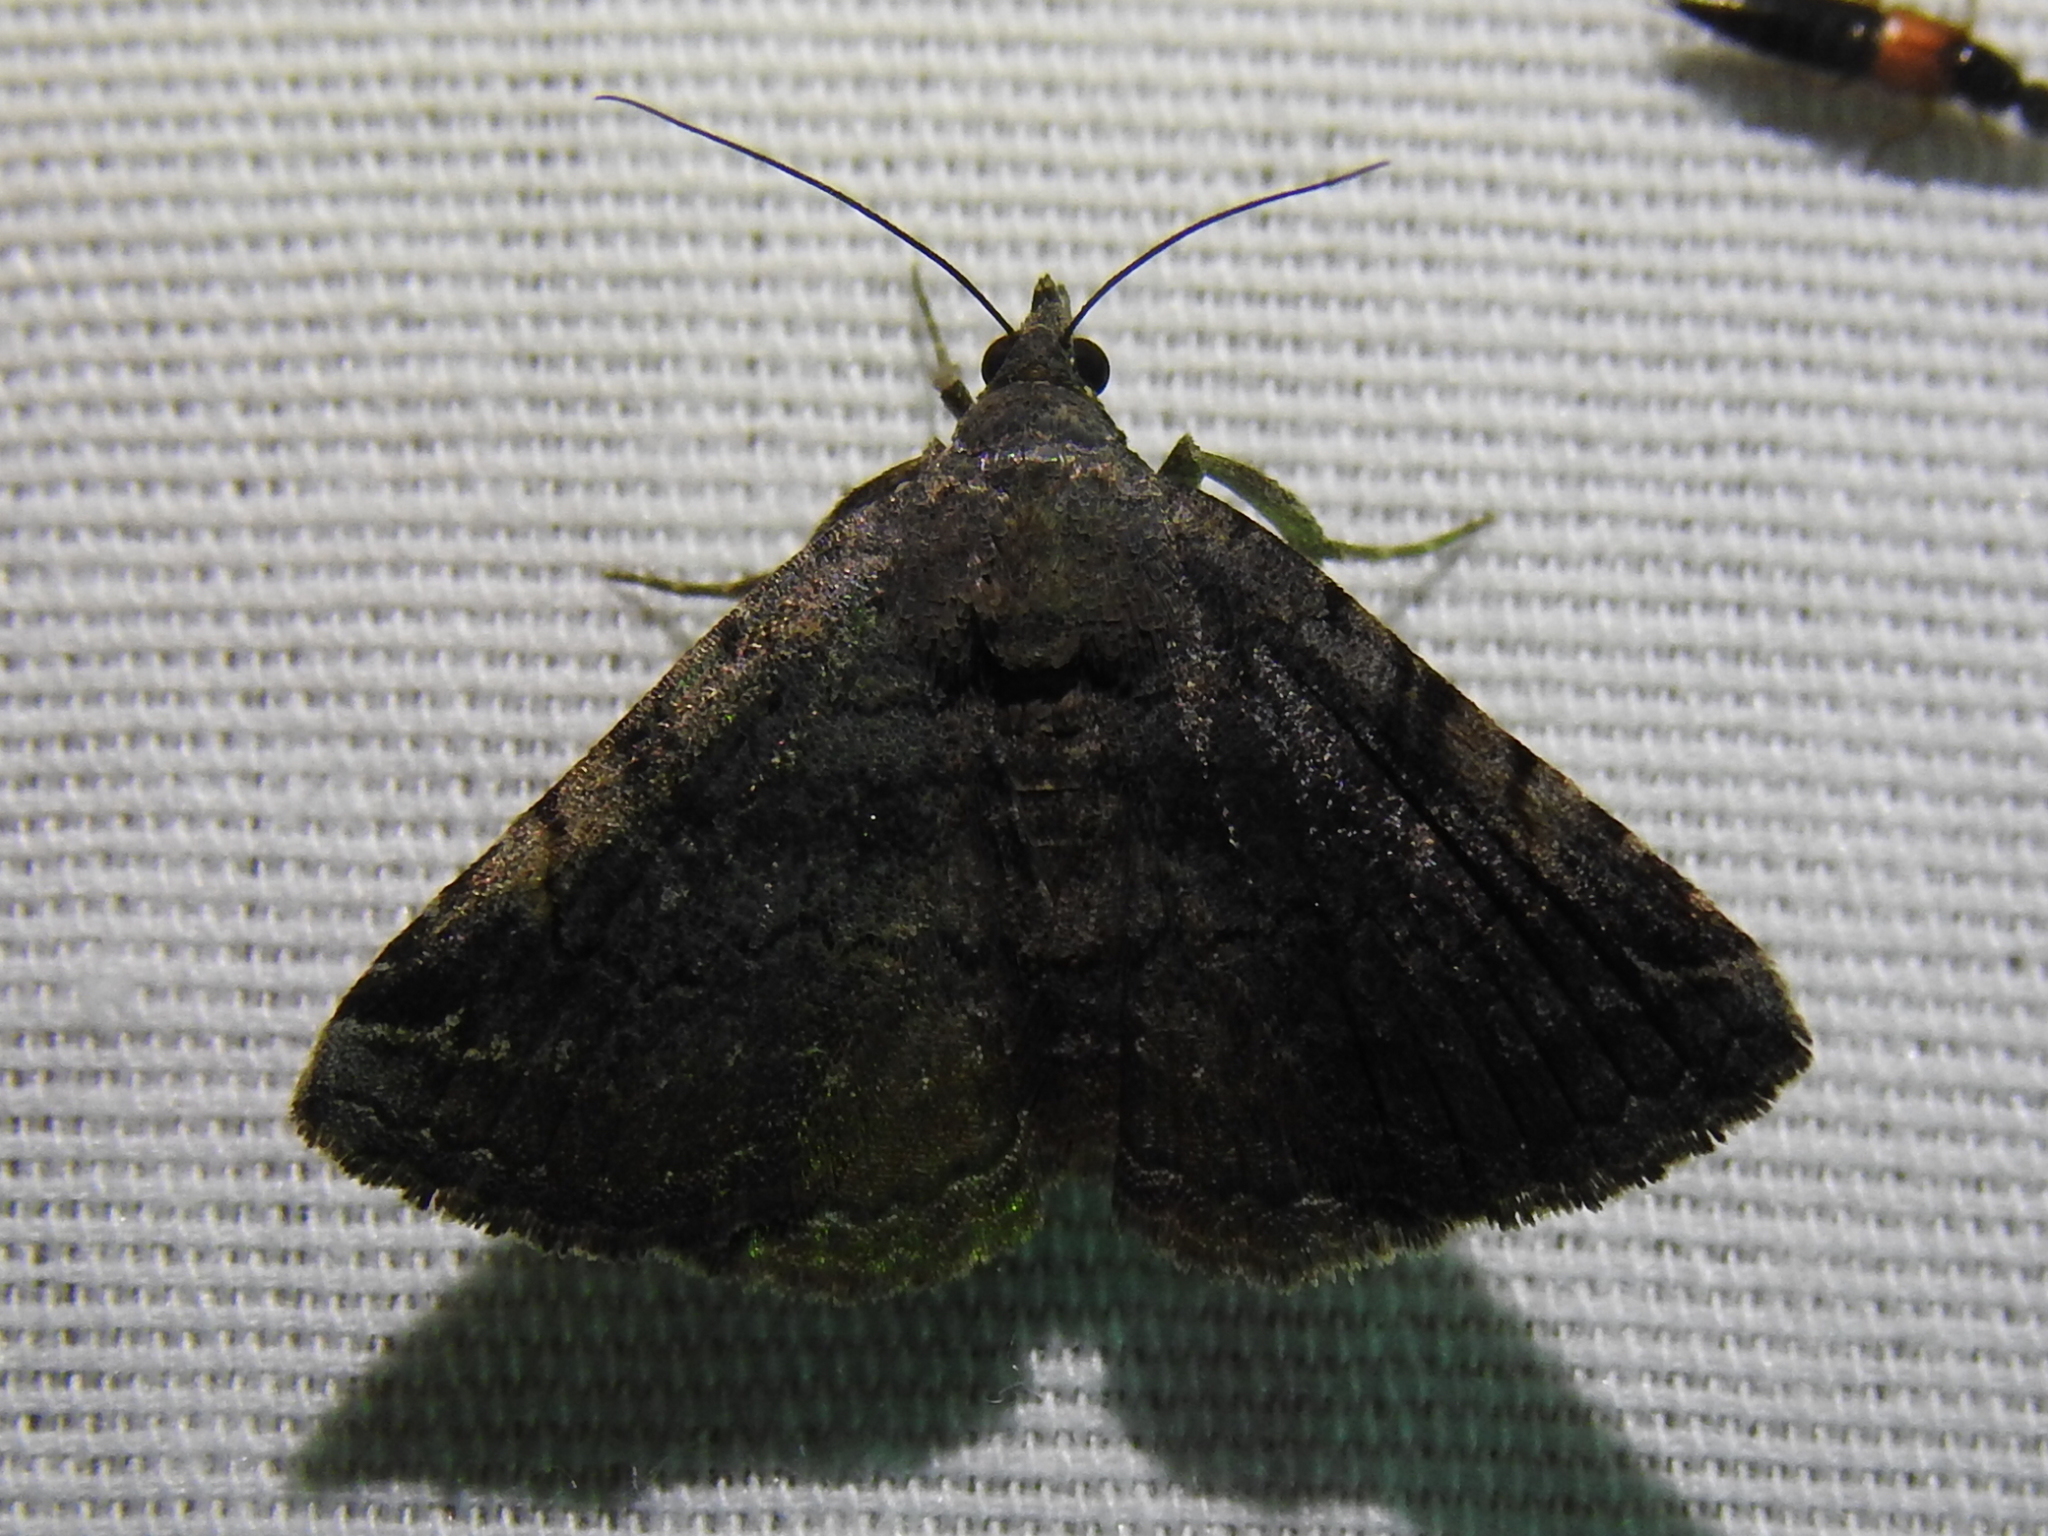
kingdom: Animalia
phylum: Arthropoda
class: Insecta
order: Lepidoptera
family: Erebidae
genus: Toxonprucha
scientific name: Toxonprucha crudelis
